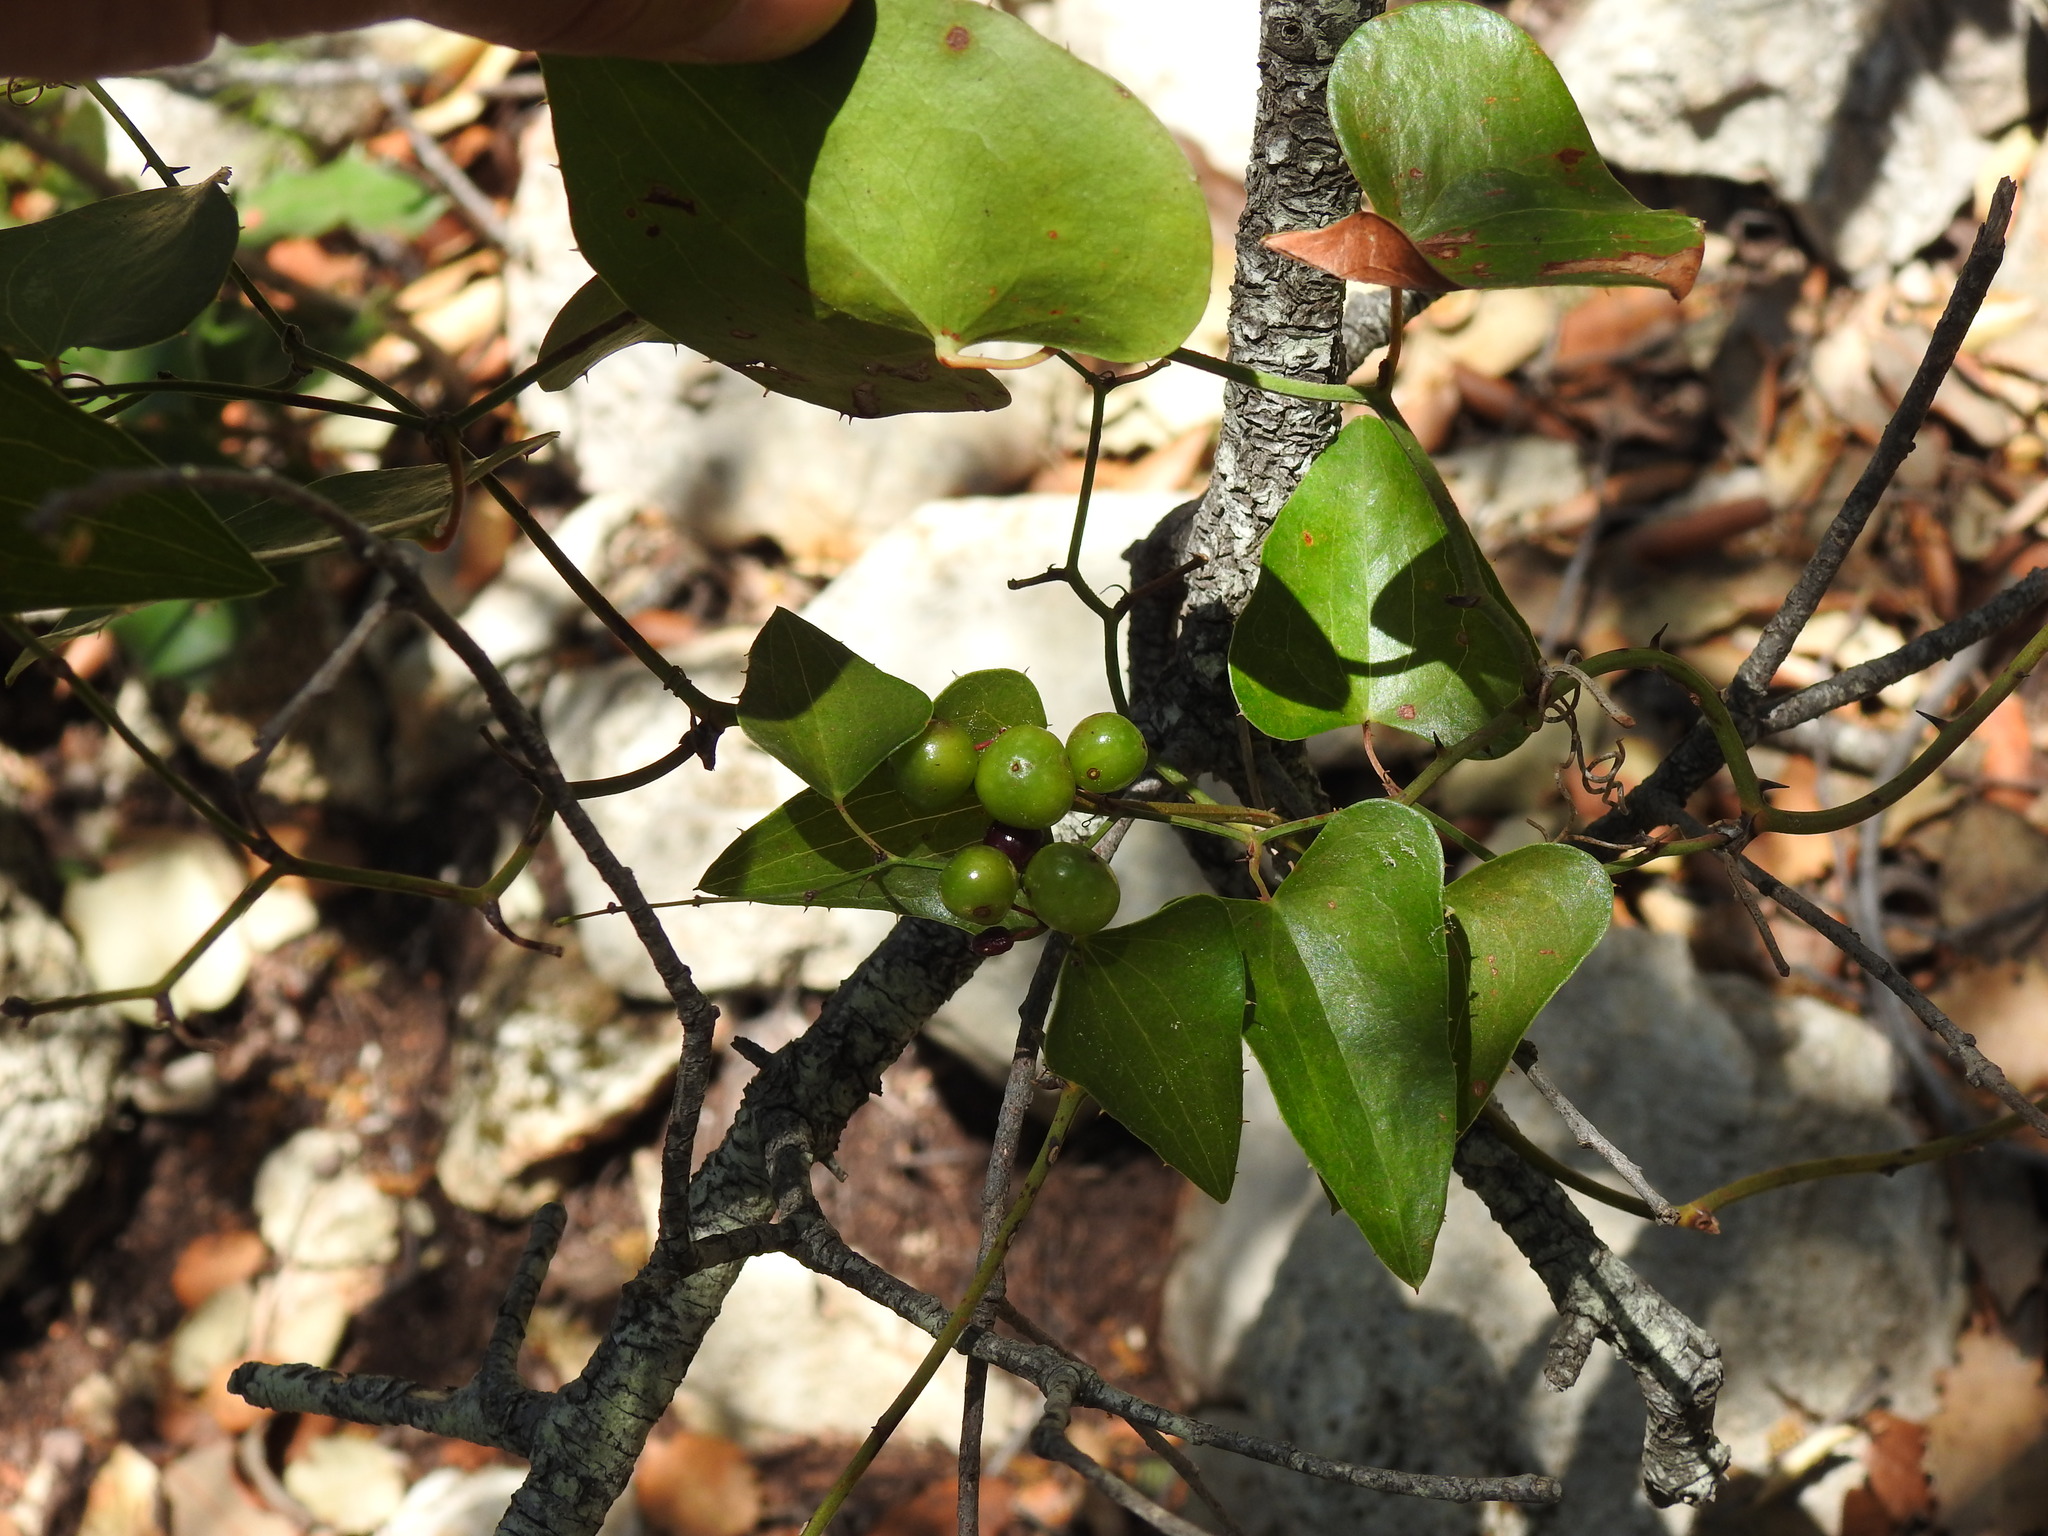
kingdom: Plantae
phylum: Tracheophyta
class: Liliopsida
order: Liliales
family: Smilacaceae
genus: Smilax
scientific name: Smilax aspera
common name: Common smilax
